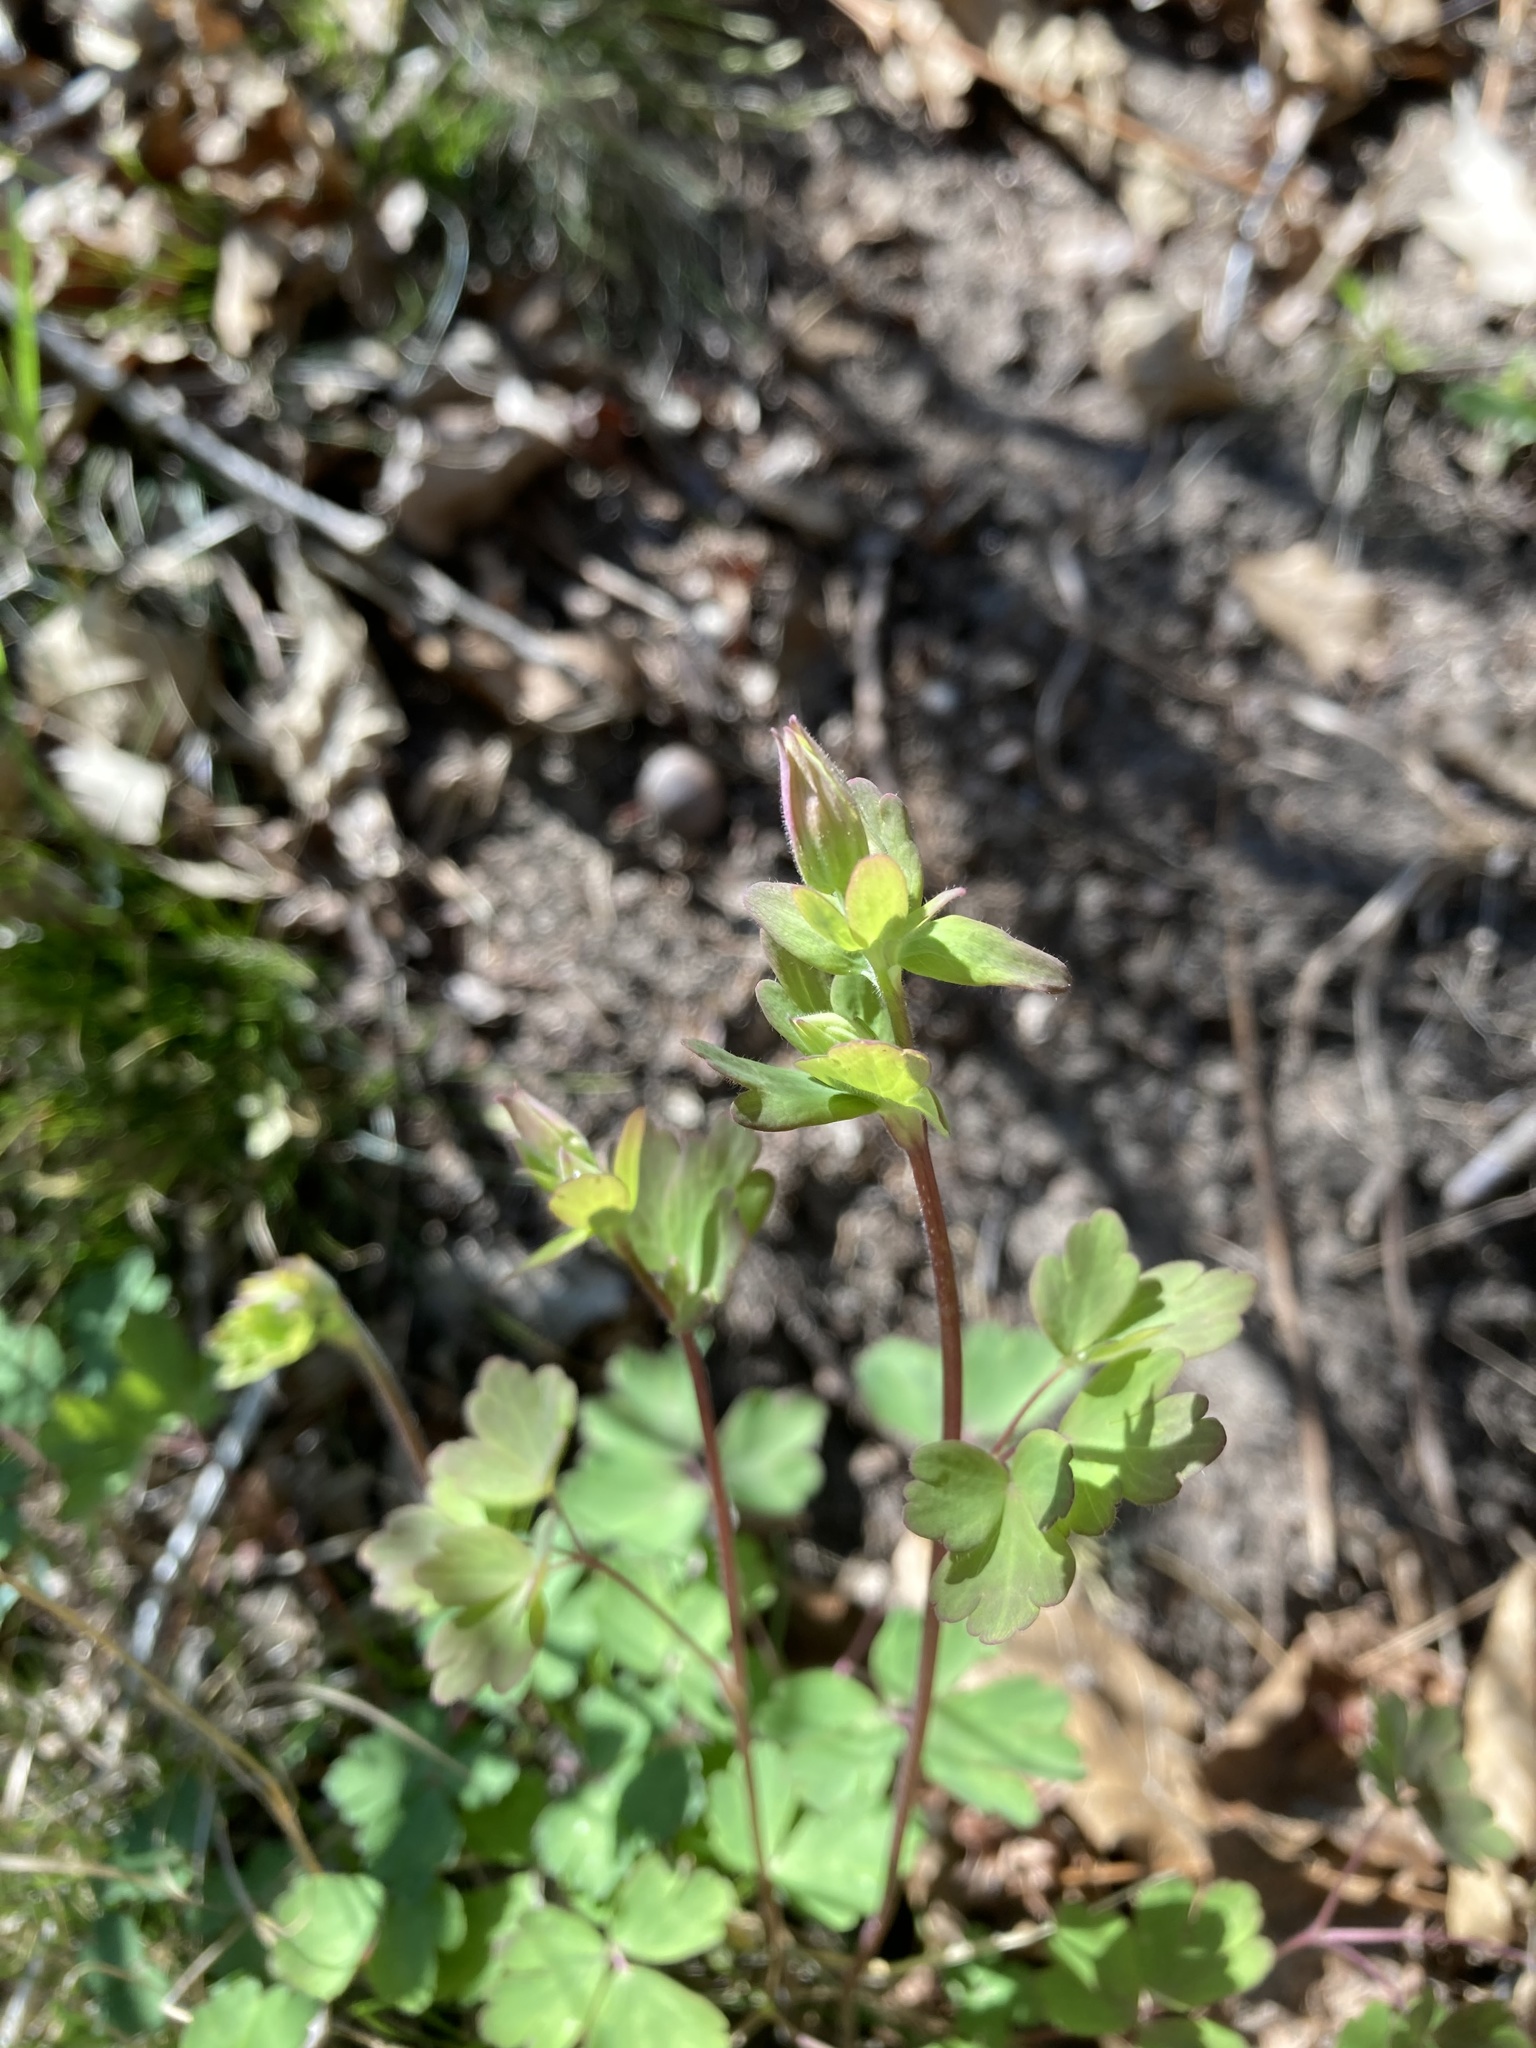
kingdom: Plantae
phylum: Tracheophyta
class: Magnoliopsida
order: Ranunculales
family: Ranunculaceae
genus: Aquilegia
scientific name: Aquilegia canadensis
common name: American columbine
